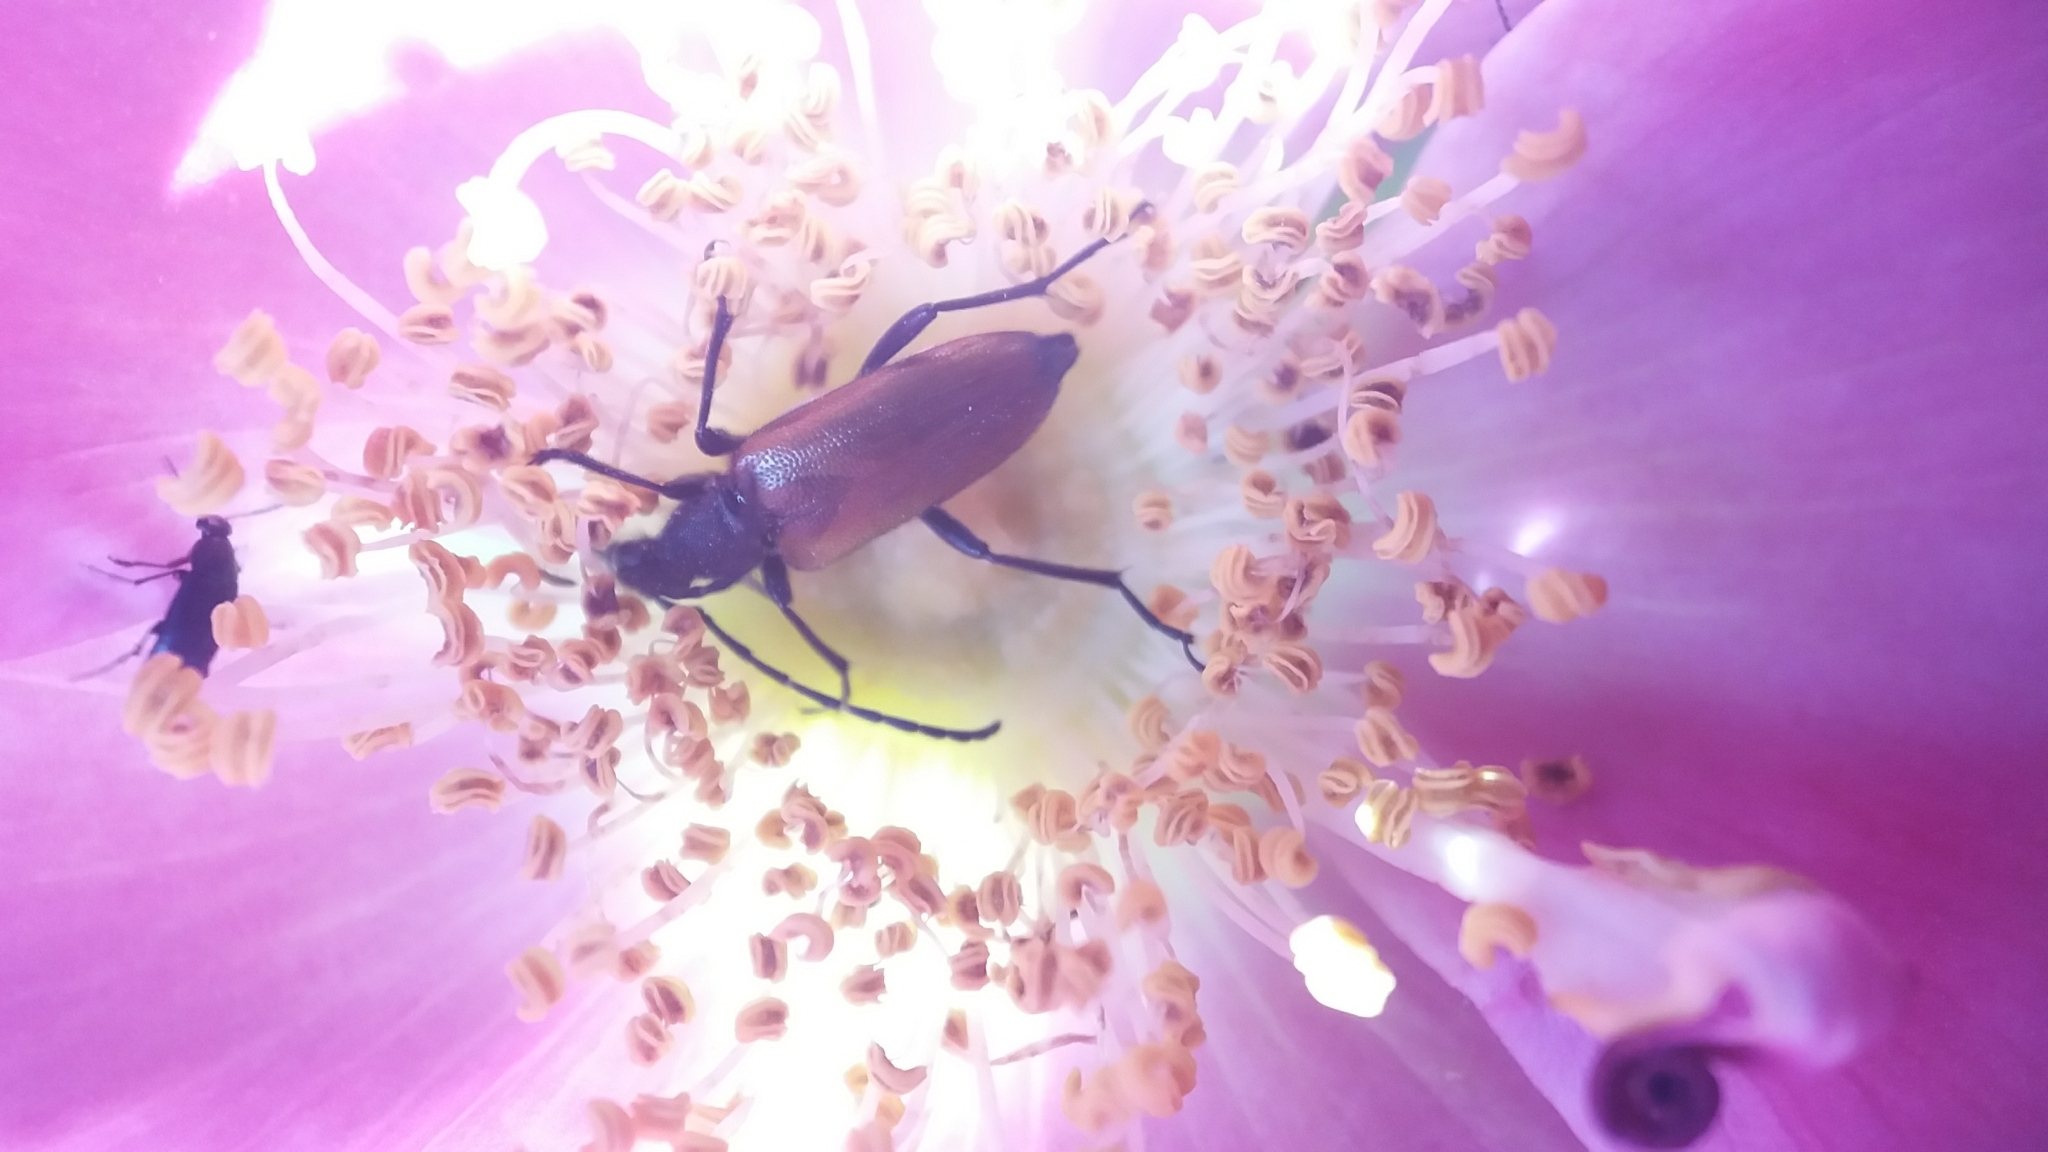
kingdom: Animalia
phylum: Arthropoda
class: Insecta
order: Coleoptera
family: Cerambycidae
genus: Paracorymbia
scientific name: Paracorymbia maculicornis
